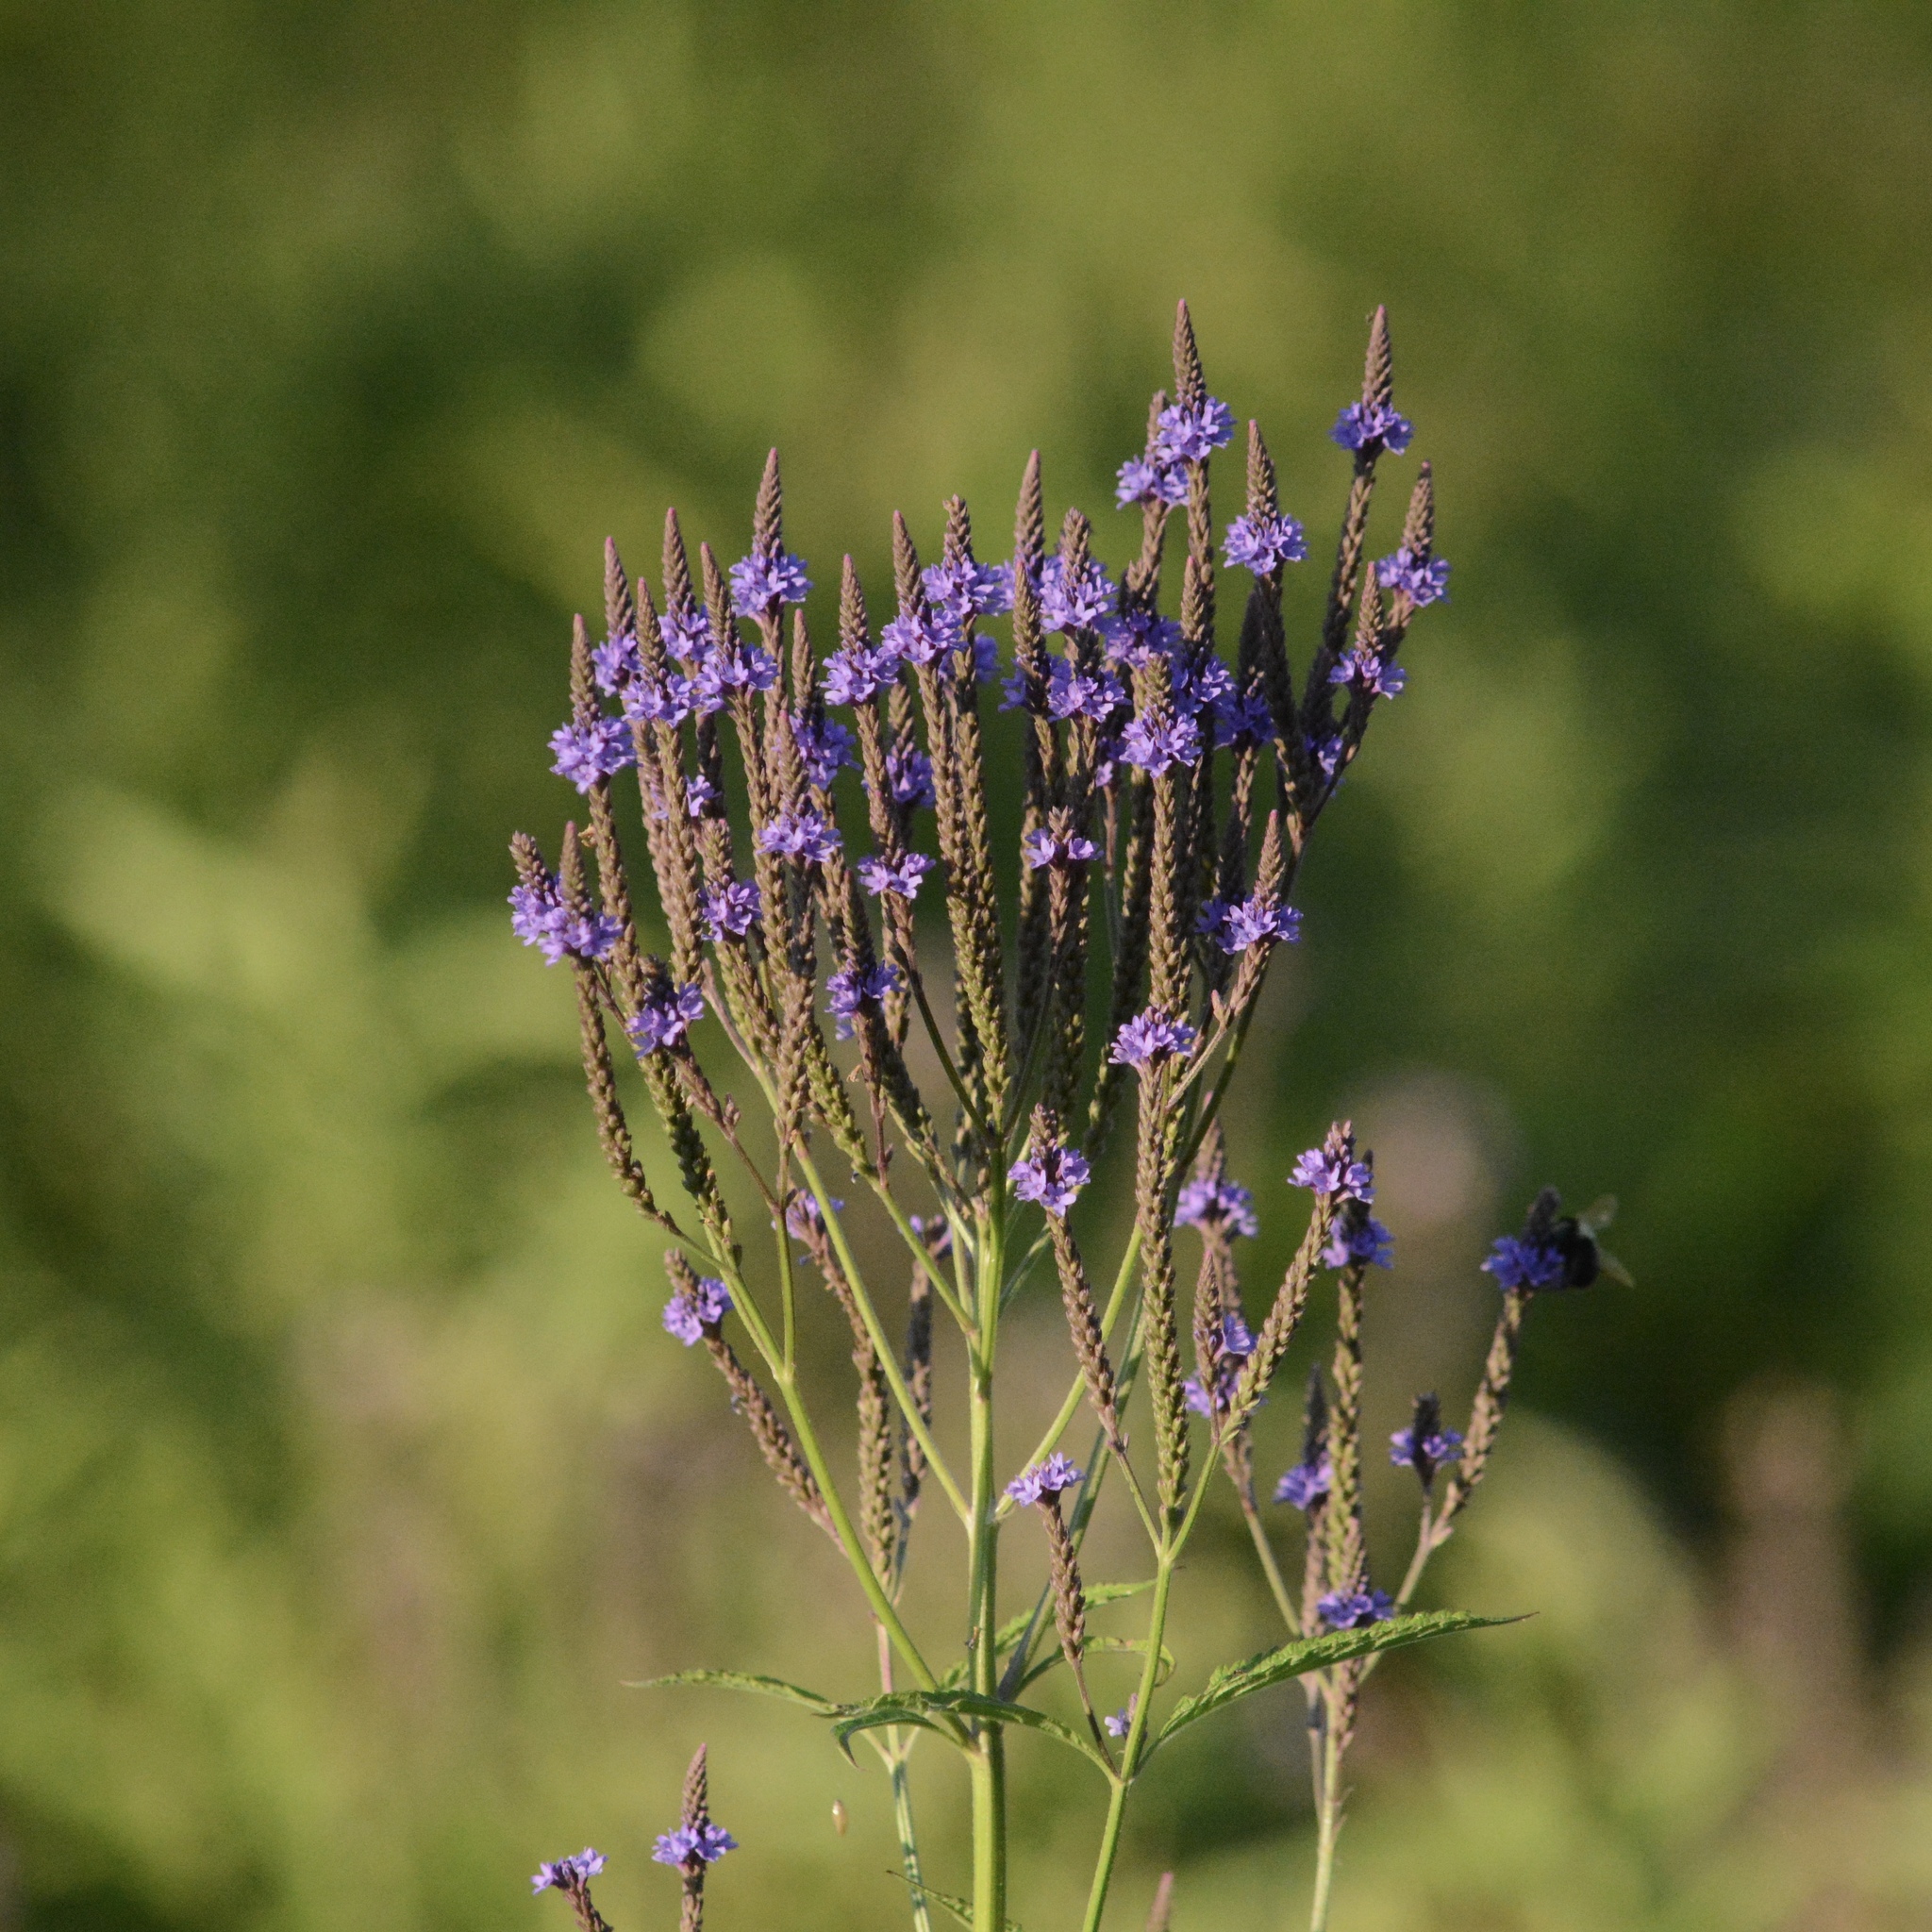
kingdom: Plantae
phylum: Tracheophyta
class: Magnoliopsida
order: Lamiales
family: Verbenaceae
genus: Verbena
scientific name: Verbena hastata
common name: American blue vervain
